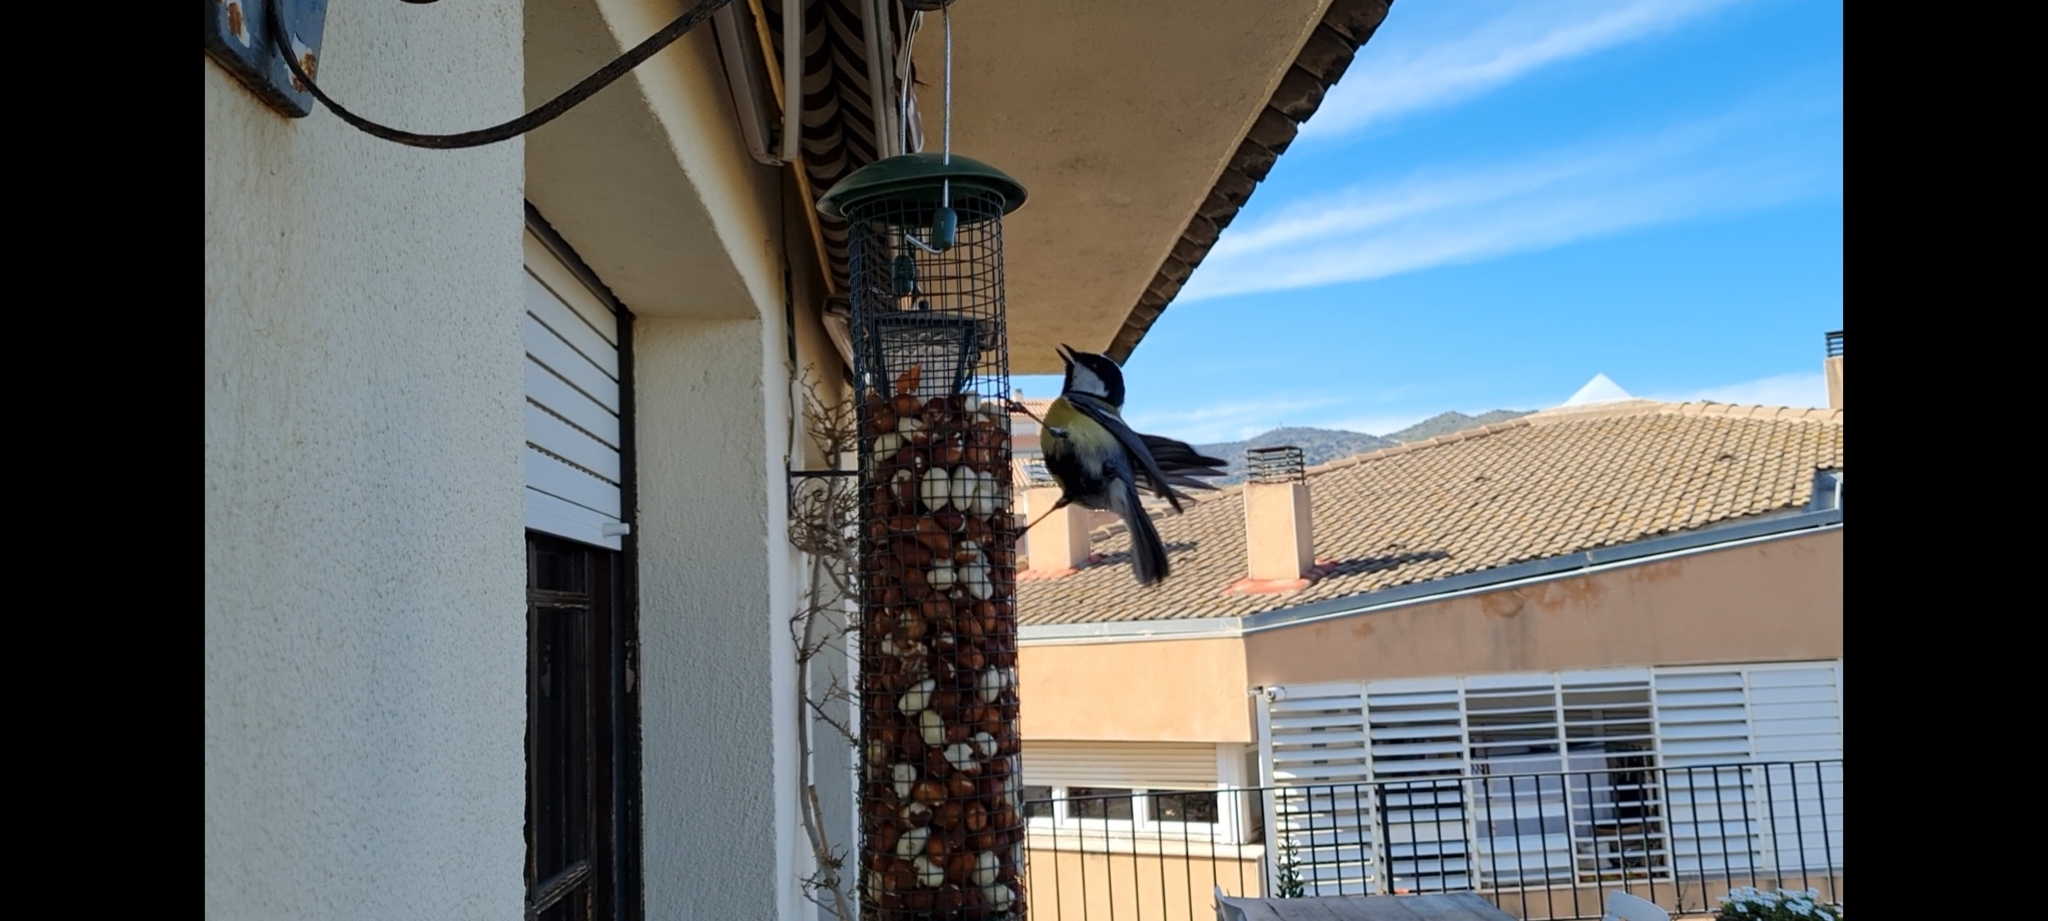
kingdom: Animalia
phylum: Chordata
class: Aves
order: Passeriformes
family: Paridae
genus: Parus
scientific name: Parus major
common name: Great tit
